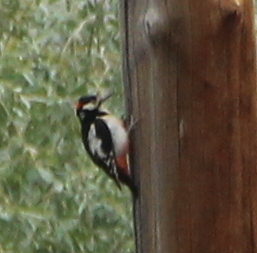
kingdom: Animalia
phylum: Chordata
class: Aves
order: Piciformes
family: Picidae
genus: Dendrocopos
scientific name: Dendrocopos leucopterus
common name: White-winged woodpecker
